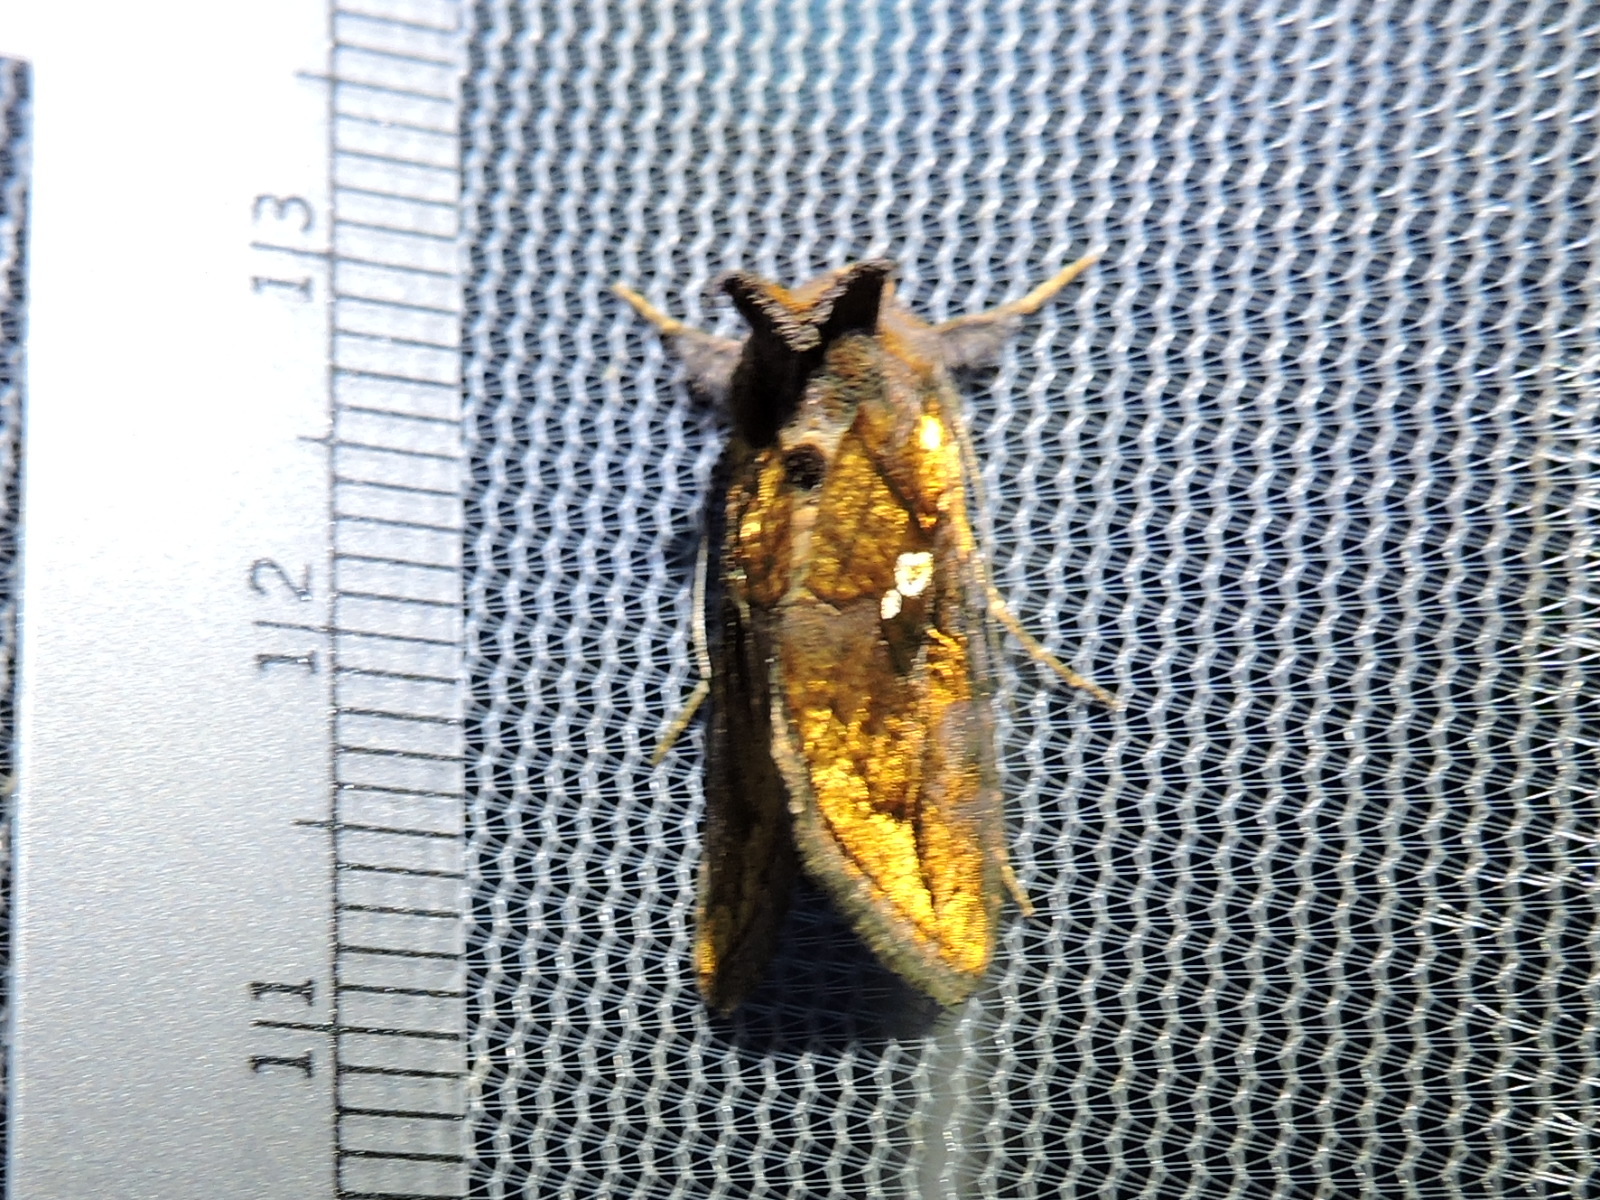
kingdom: Animalia
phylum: Arthropoda
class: Insecta
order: Lepidoptera
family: Noctuidae
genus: Argyrogramma
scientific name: Argyrogramma verruca
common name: Golden looper moth
